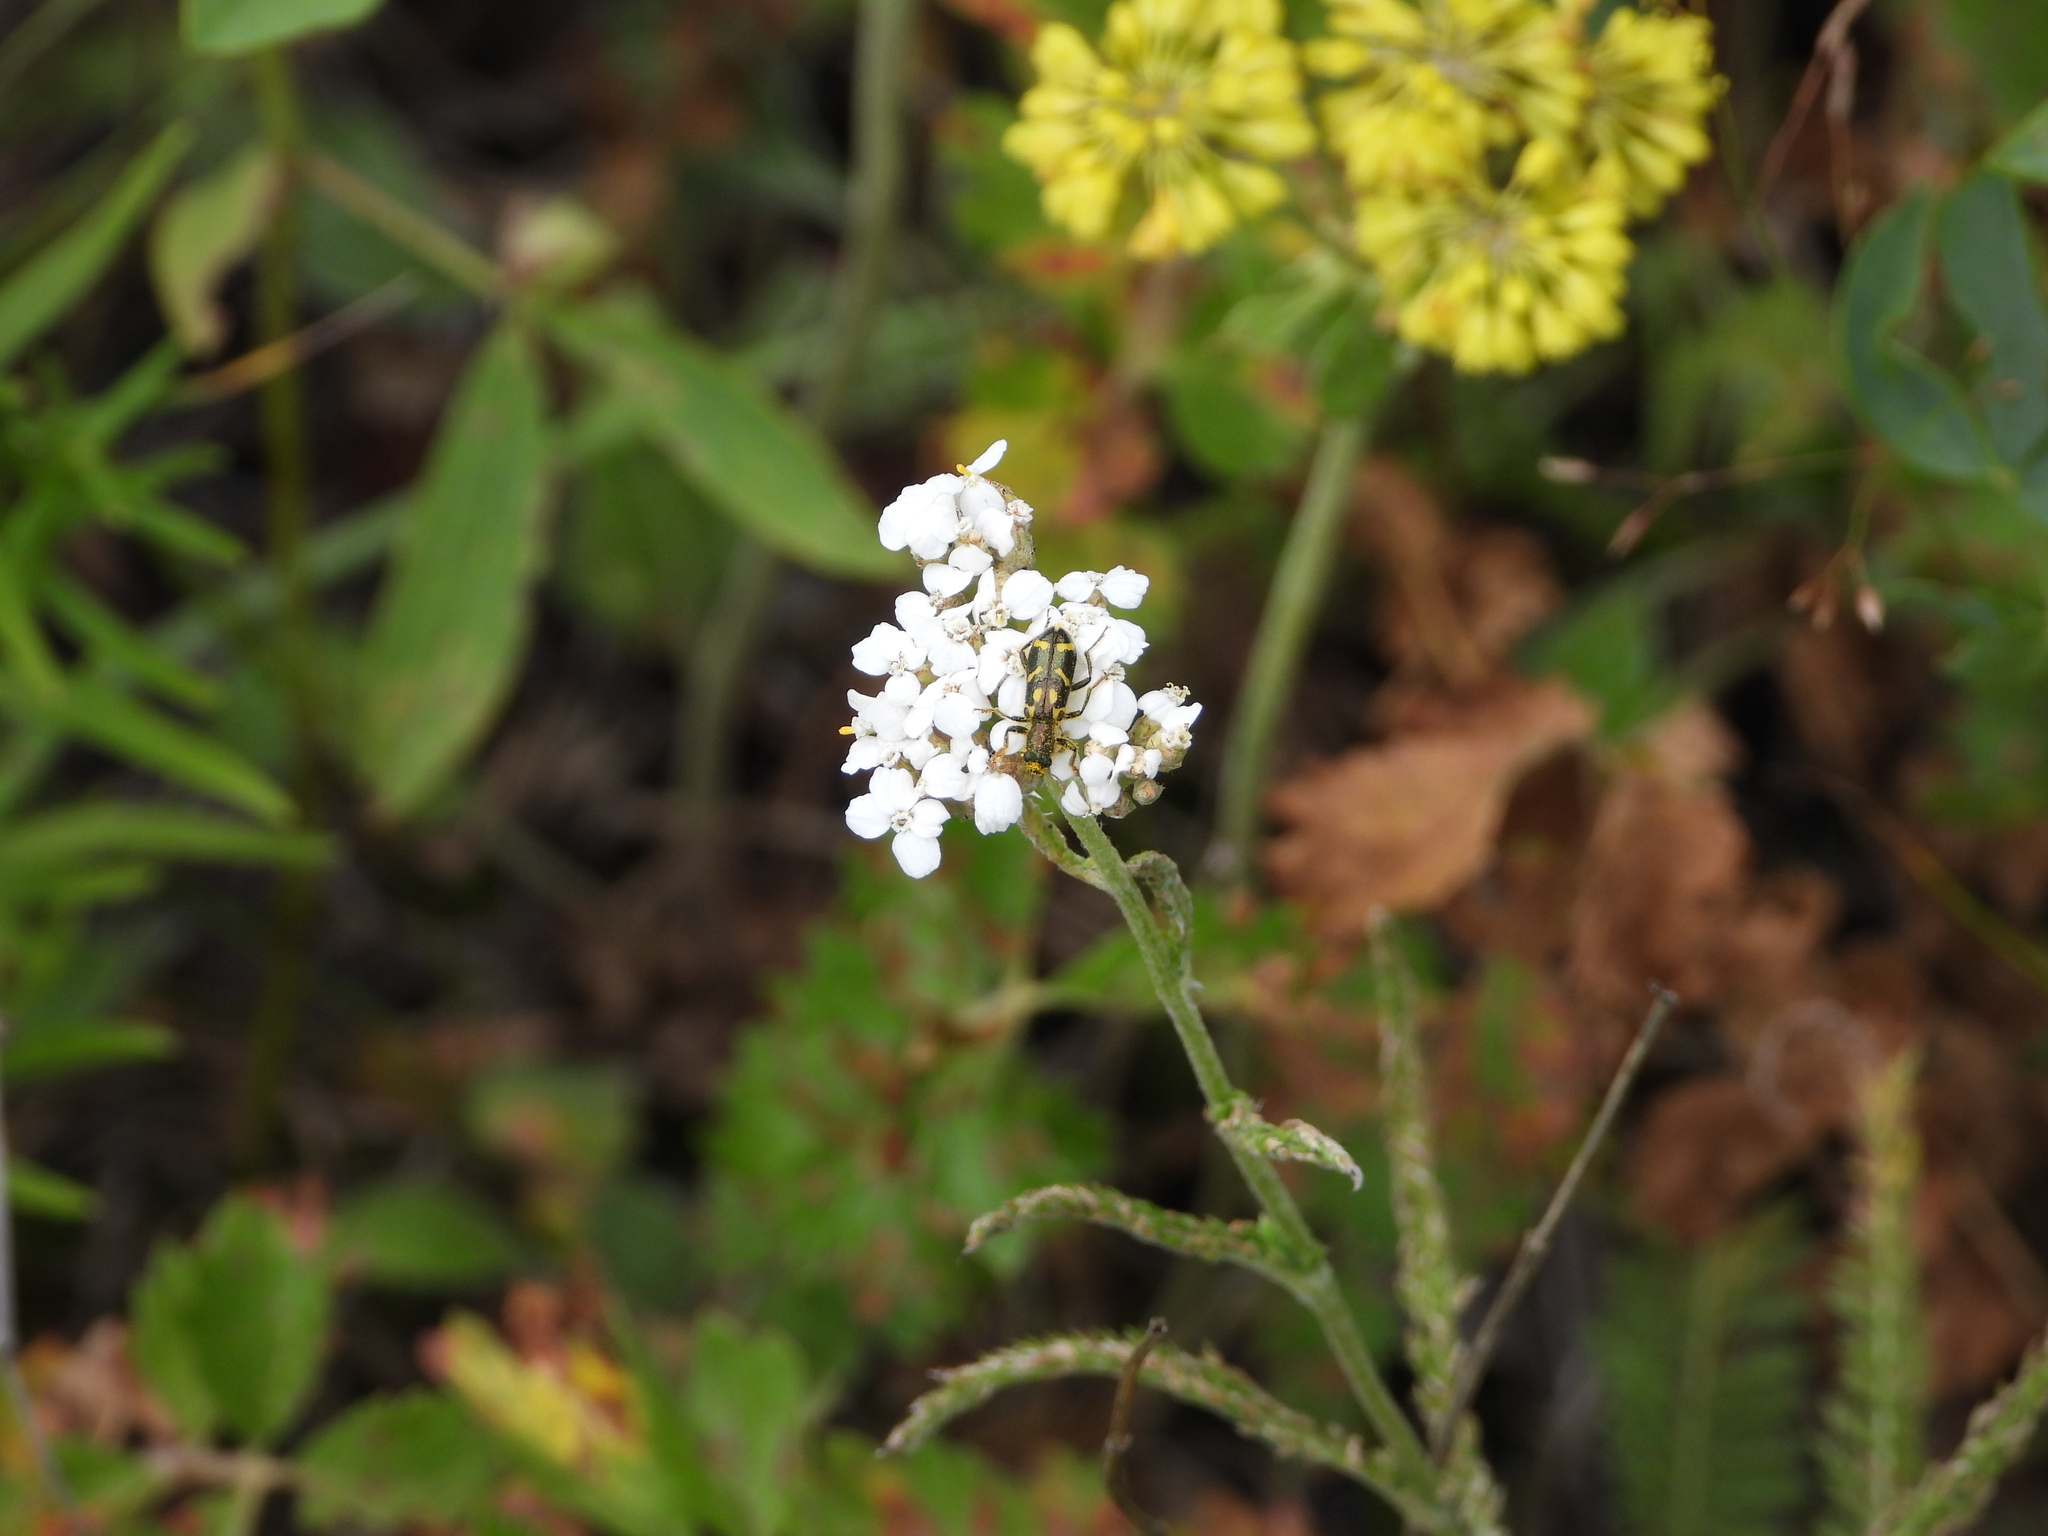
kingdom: Animalia
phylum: Arthropoda
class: Insecta
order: Coleoptera
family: Cleridae
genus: Trichodes
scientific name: Trichodes ornatus
